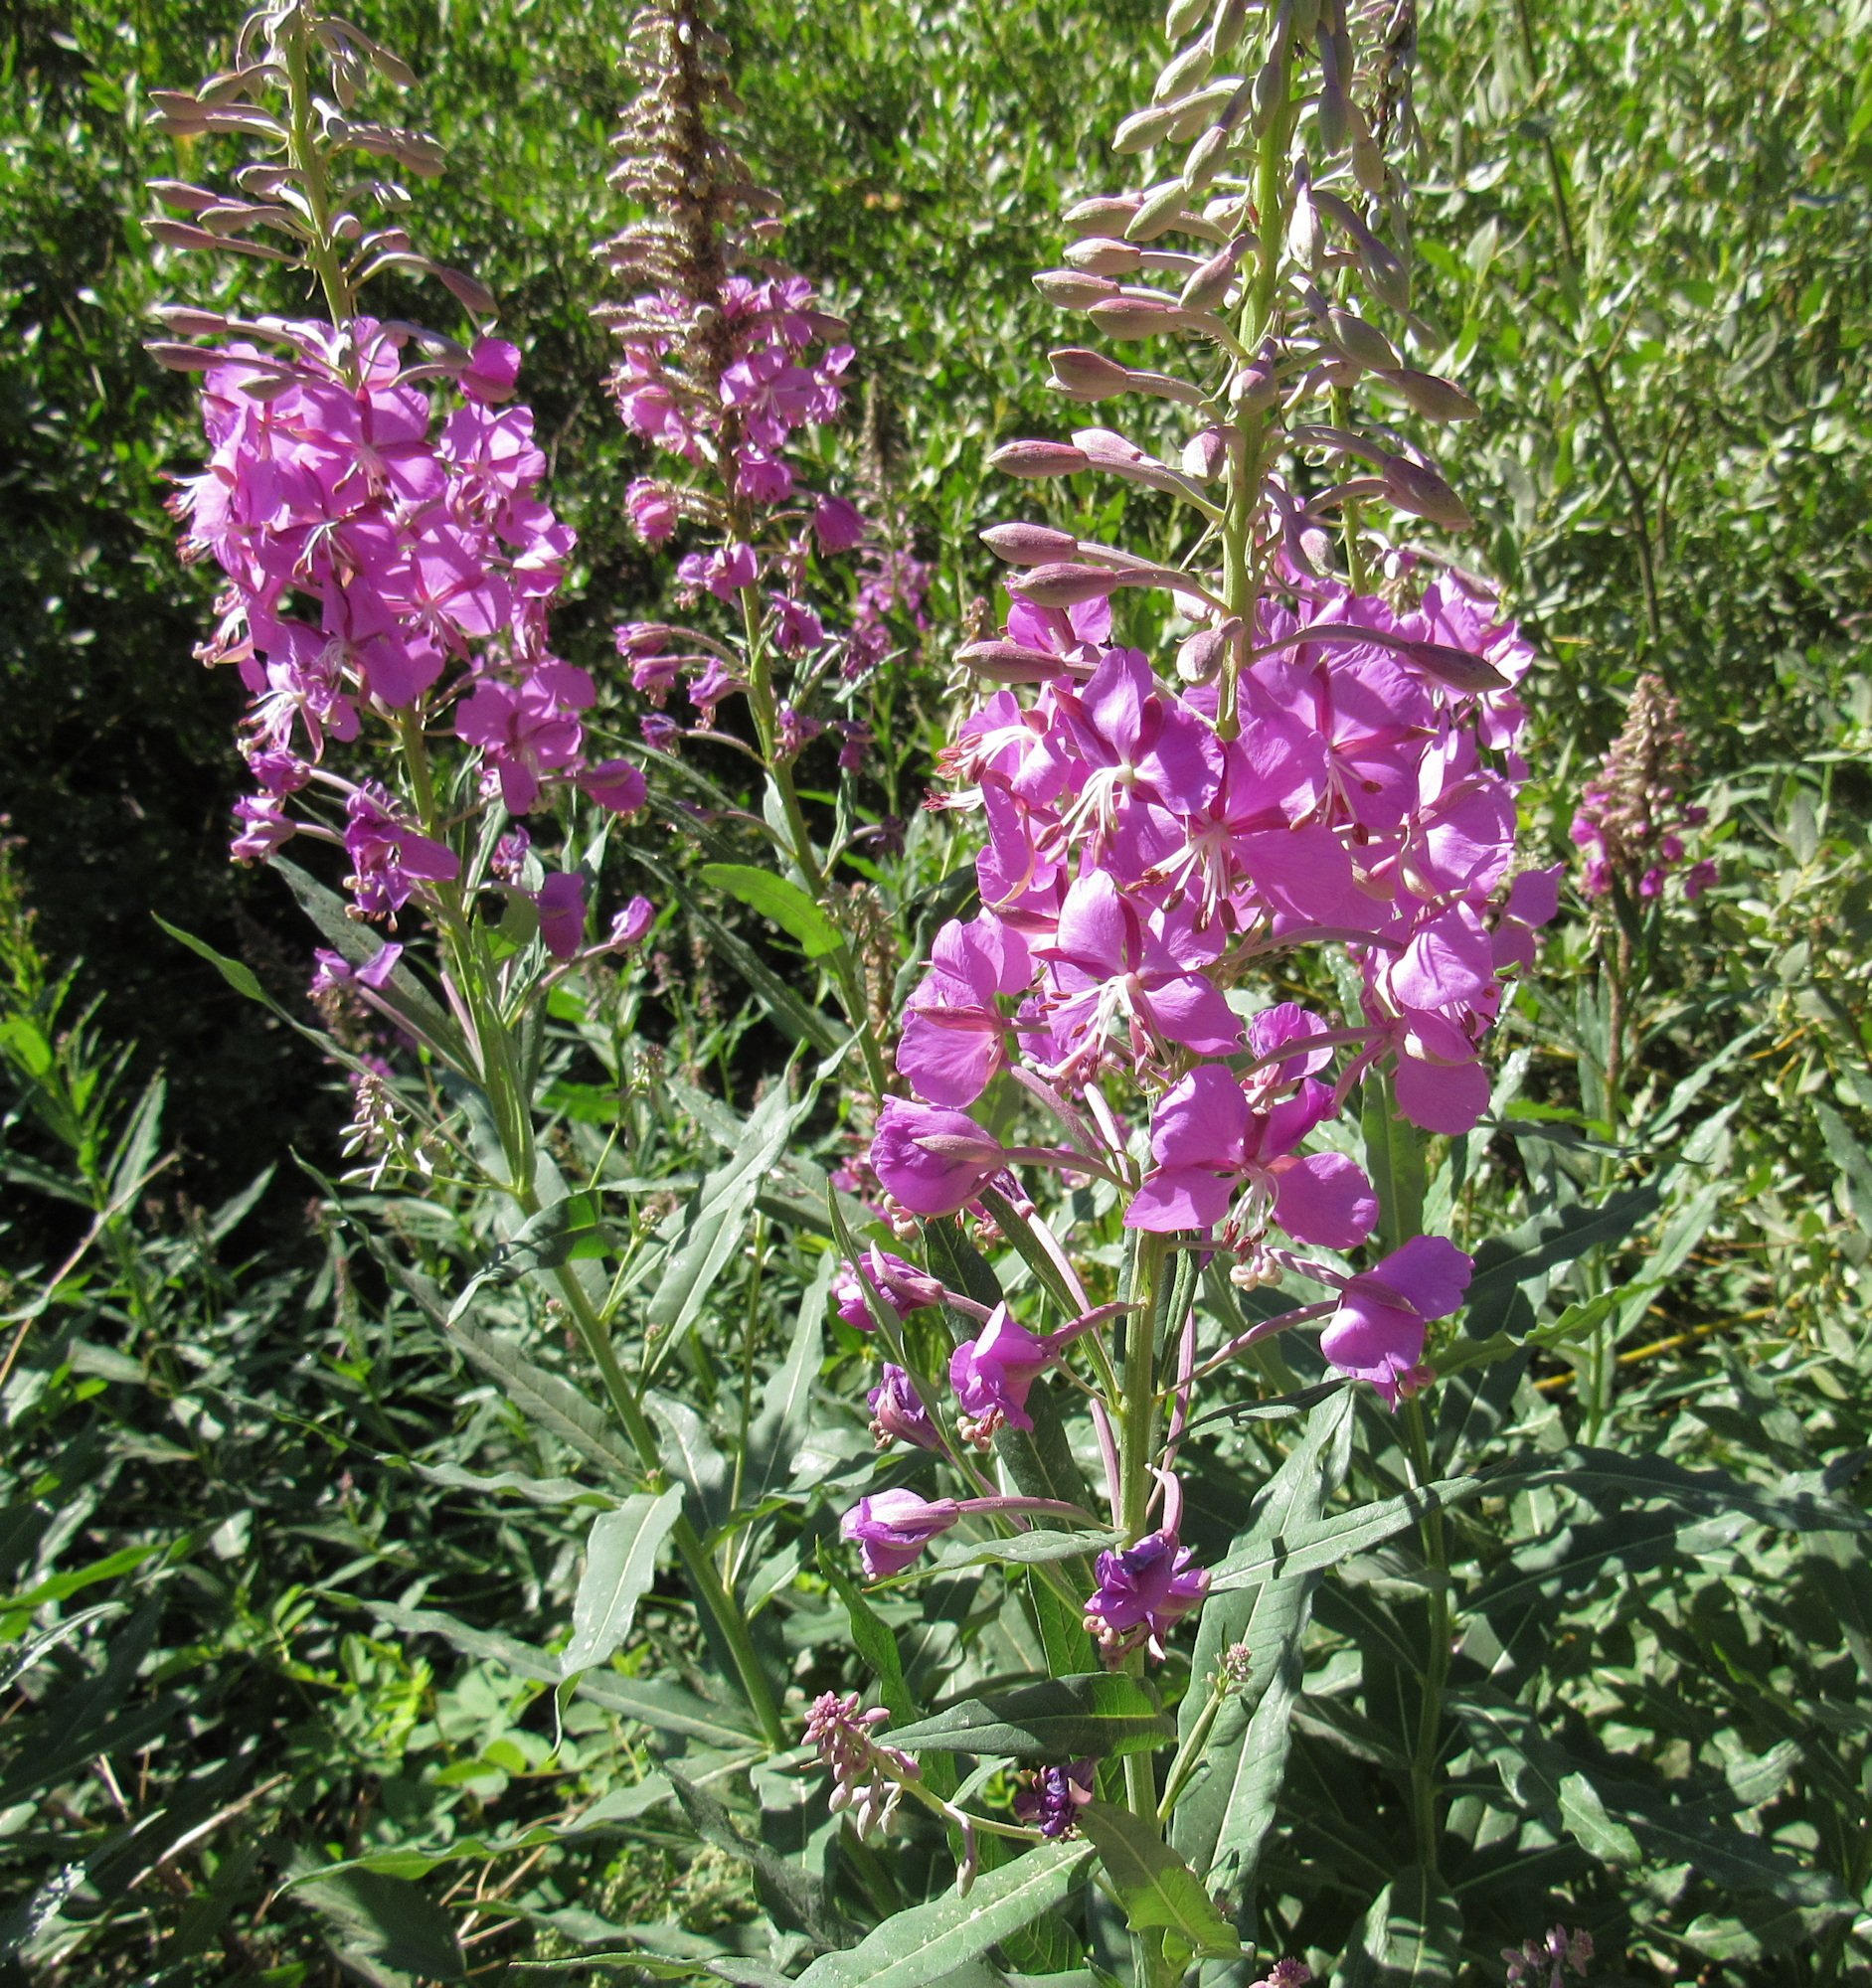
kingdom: Plantae
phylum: Tracheophyta
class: Magnoliopsida
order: Myrtales
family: Onagraceae
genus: Chamaenerion
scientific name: Chamaenerion angustifolium
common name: Fireweed
